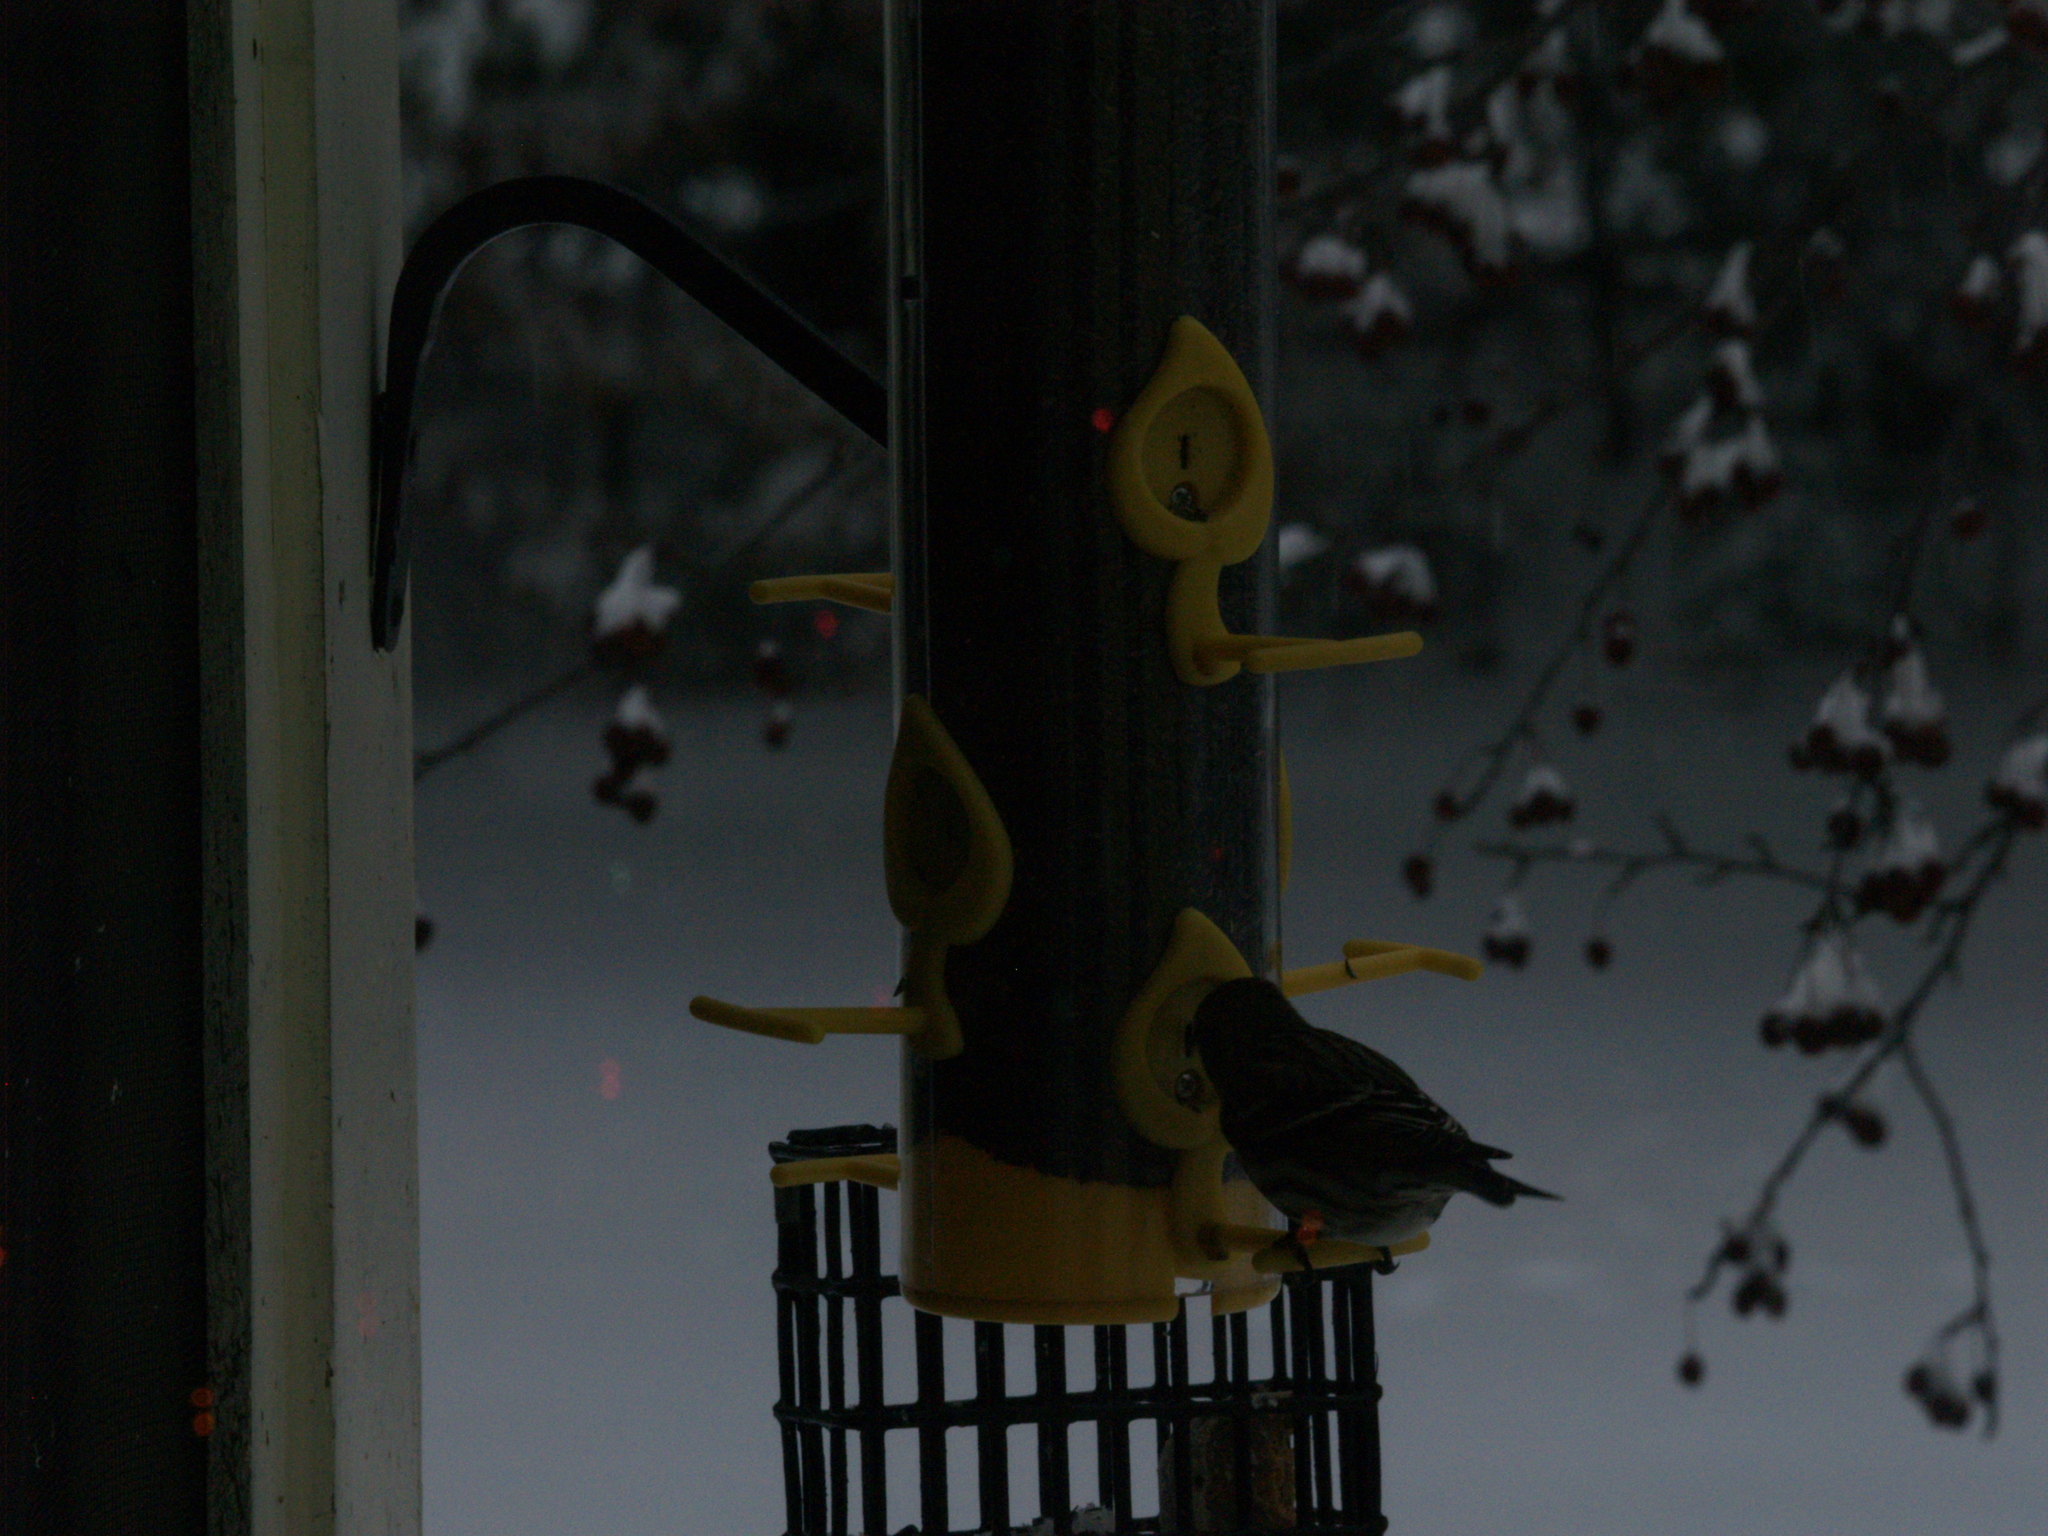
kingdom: Animalia
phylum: Chordata
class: Aves
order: Passeriformes
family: Fringillidae
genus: Spinus
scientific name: Spinus pinus
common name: Pine siskin
